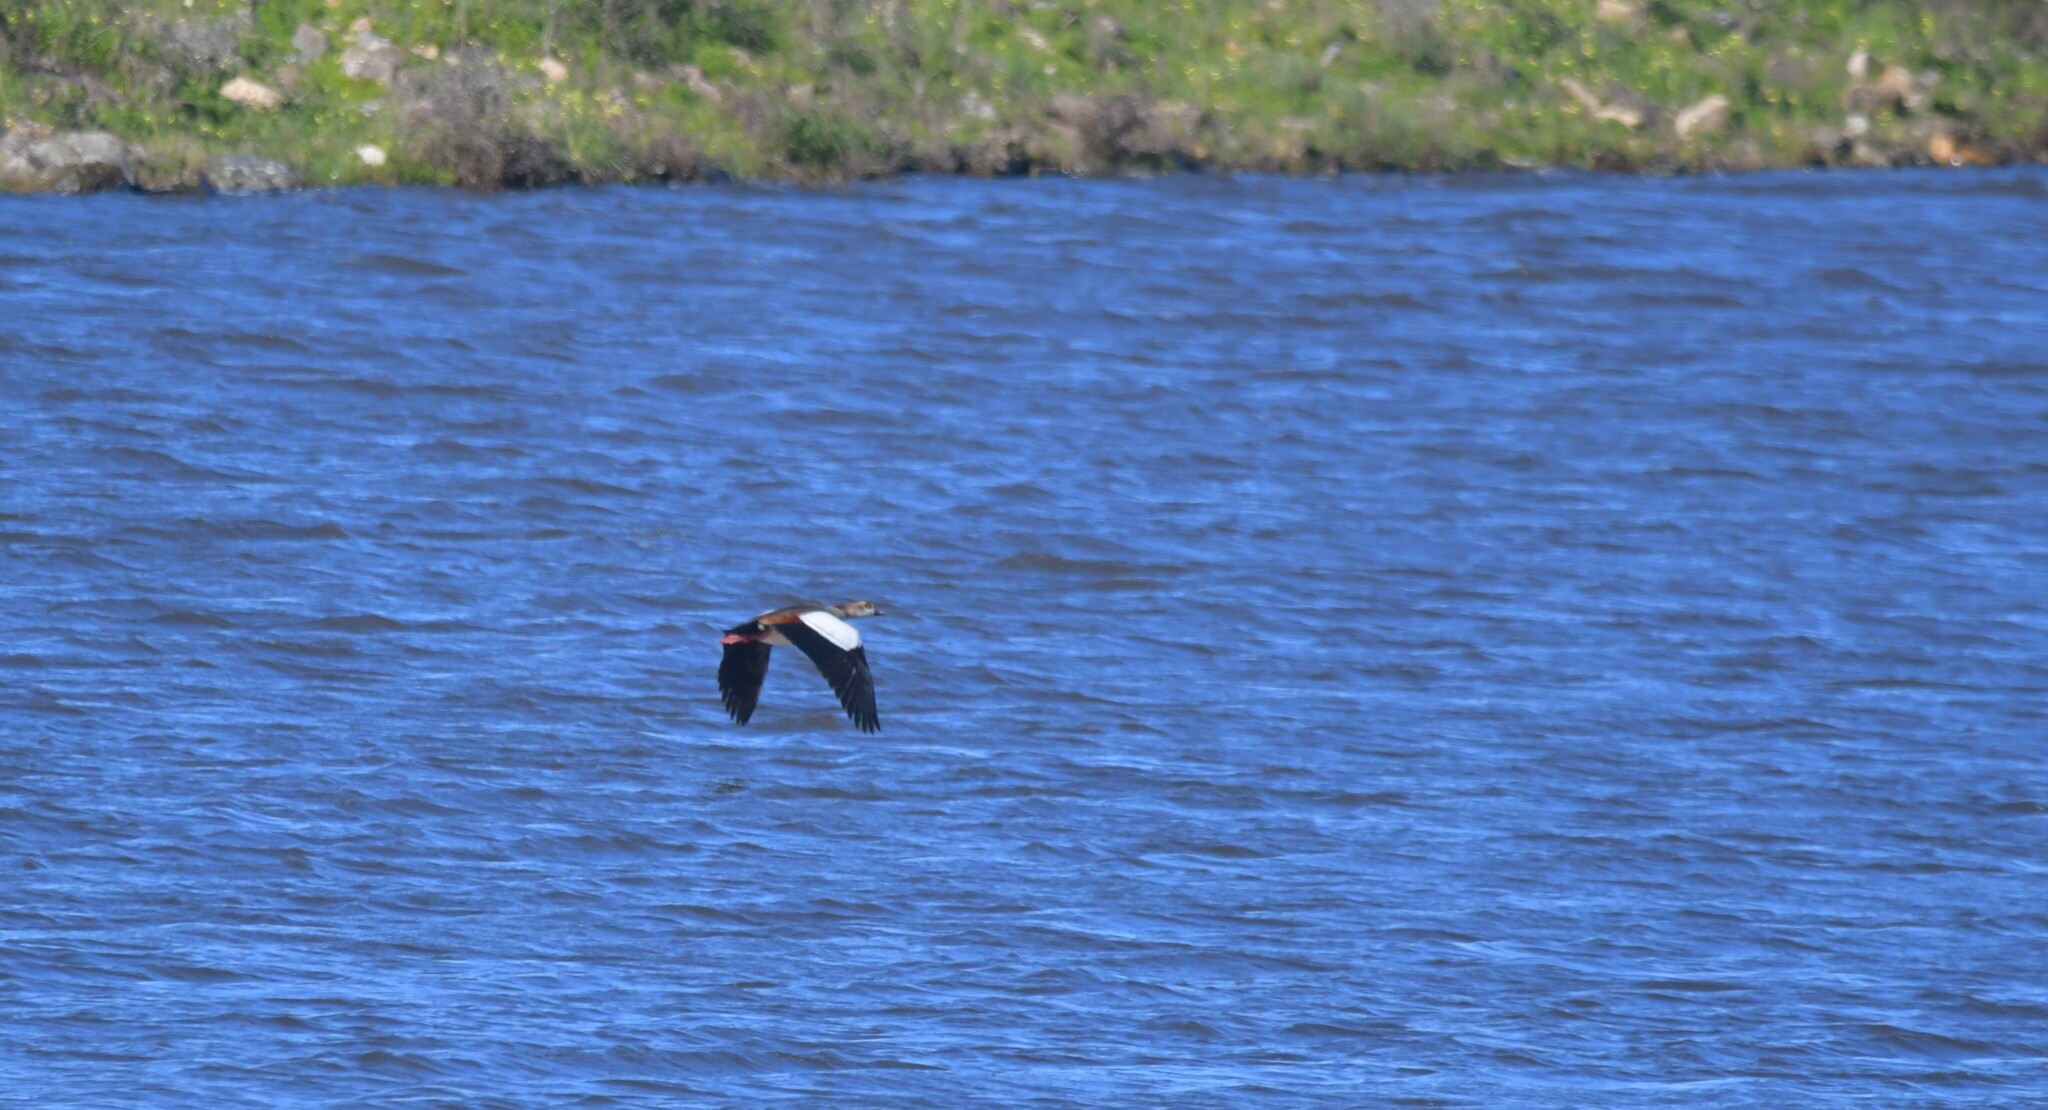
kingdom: Animalia
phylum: Chordata
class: Aves
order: Anseriformes
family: Anatidae
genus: Alopochen
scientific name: Alopochen aegyptiaca
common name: Egyptian goose
